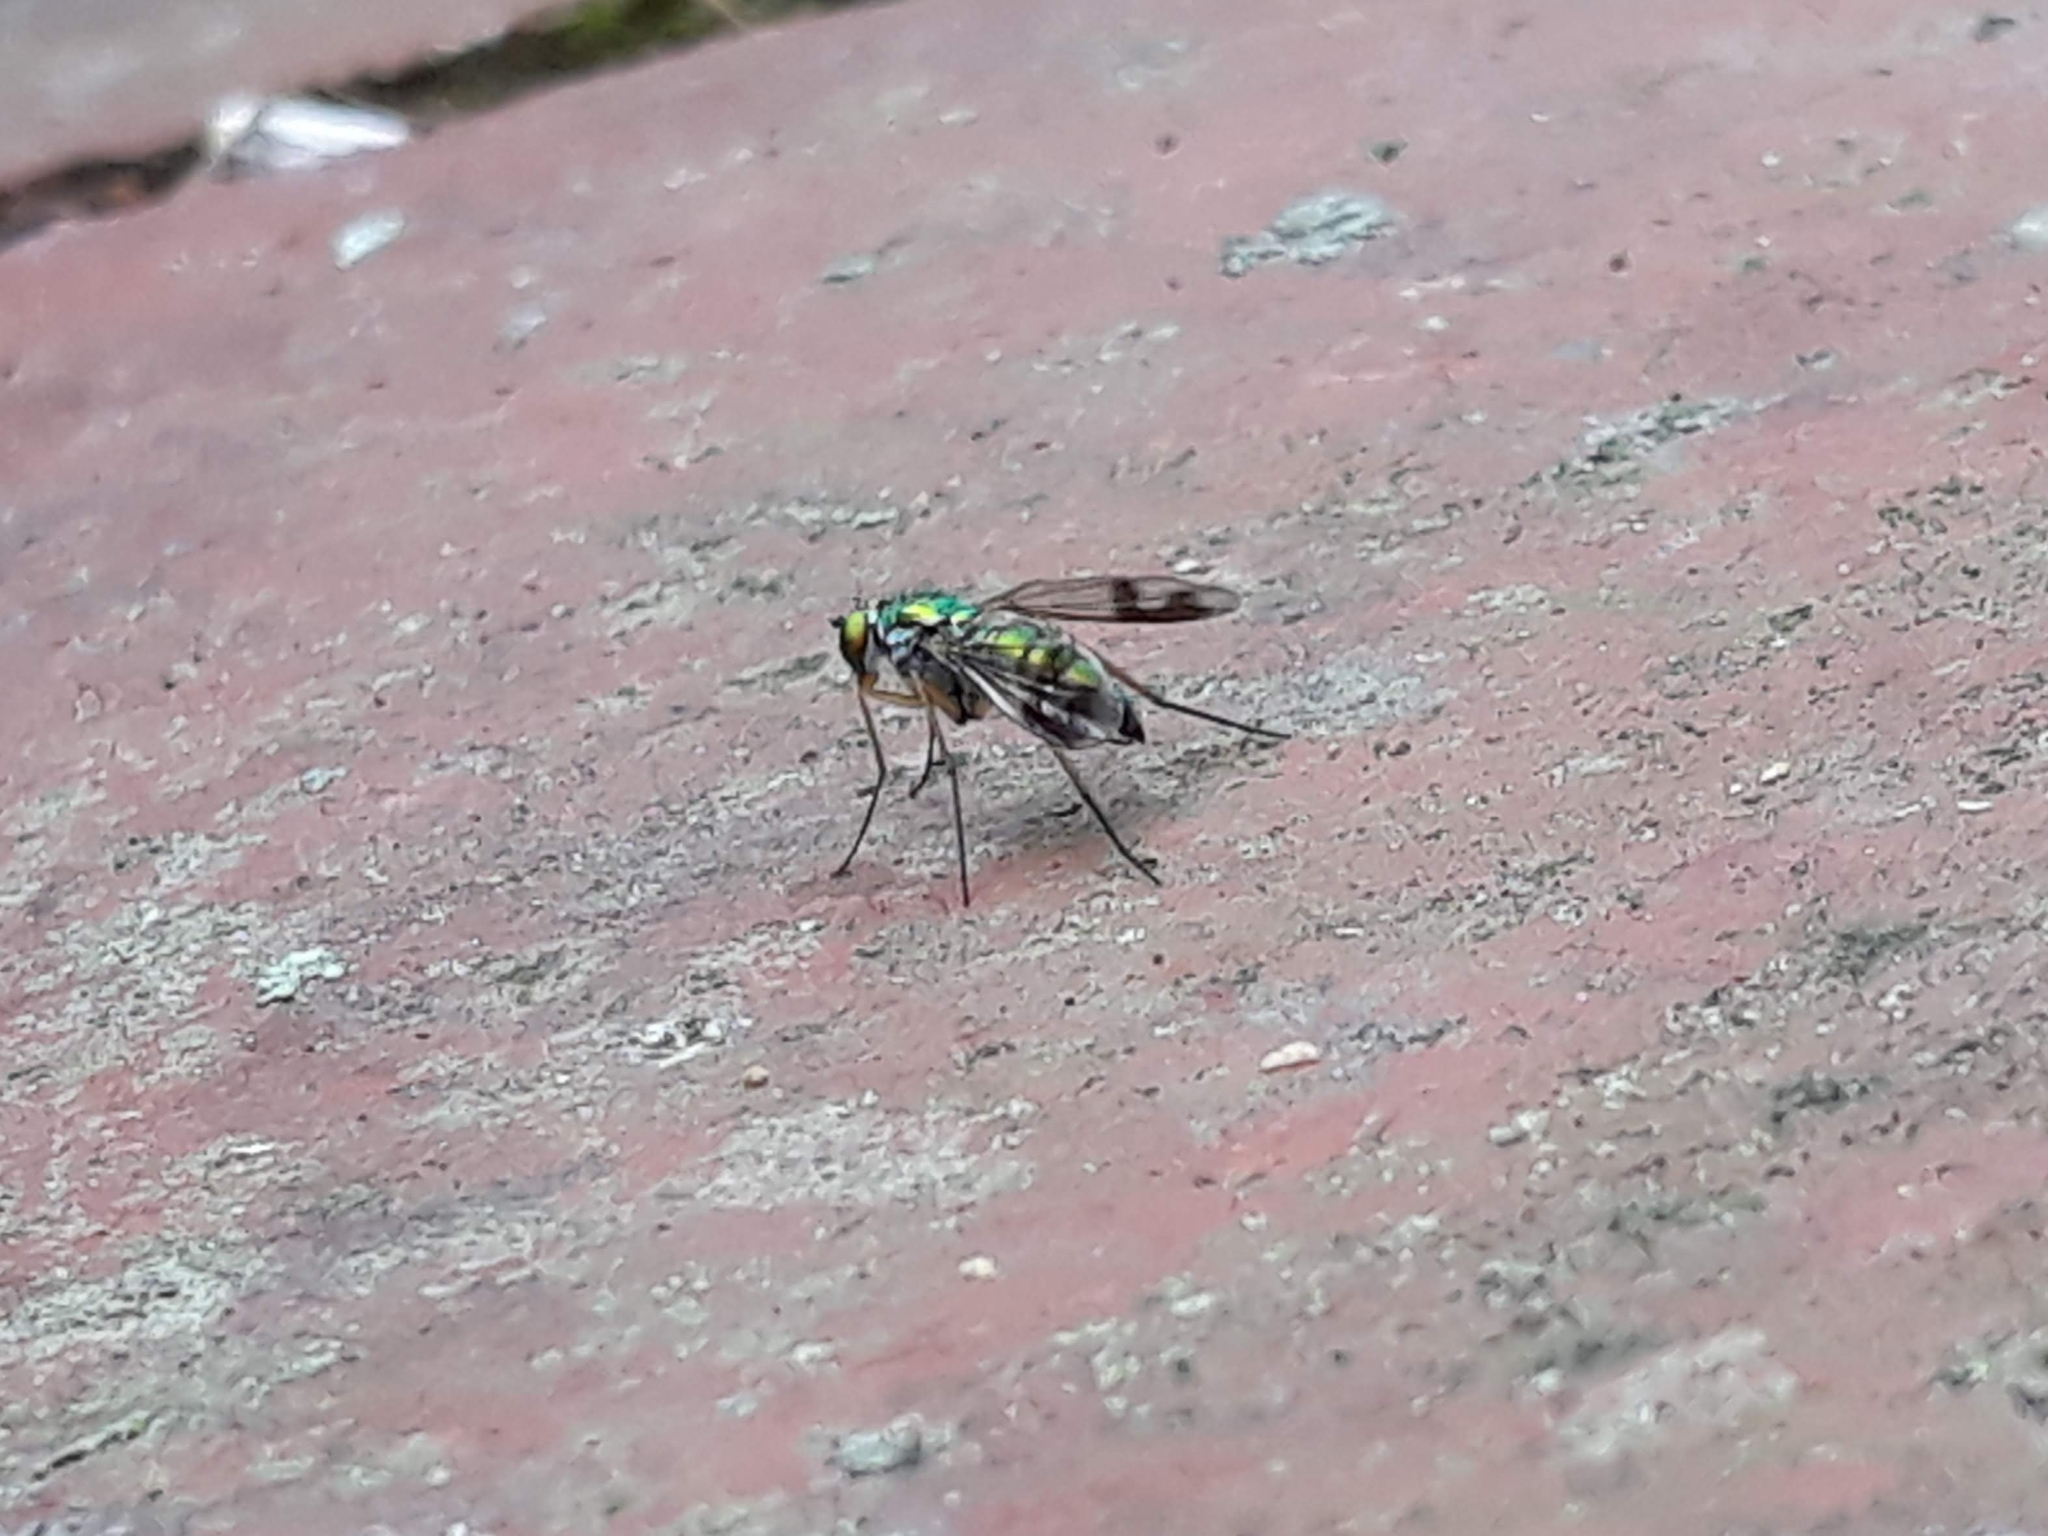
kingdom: Animalia
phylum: Arthropoda
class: Insecta
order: Diptera
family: Dolichopodidae
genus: Condylostylus
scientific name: Condylostylus
